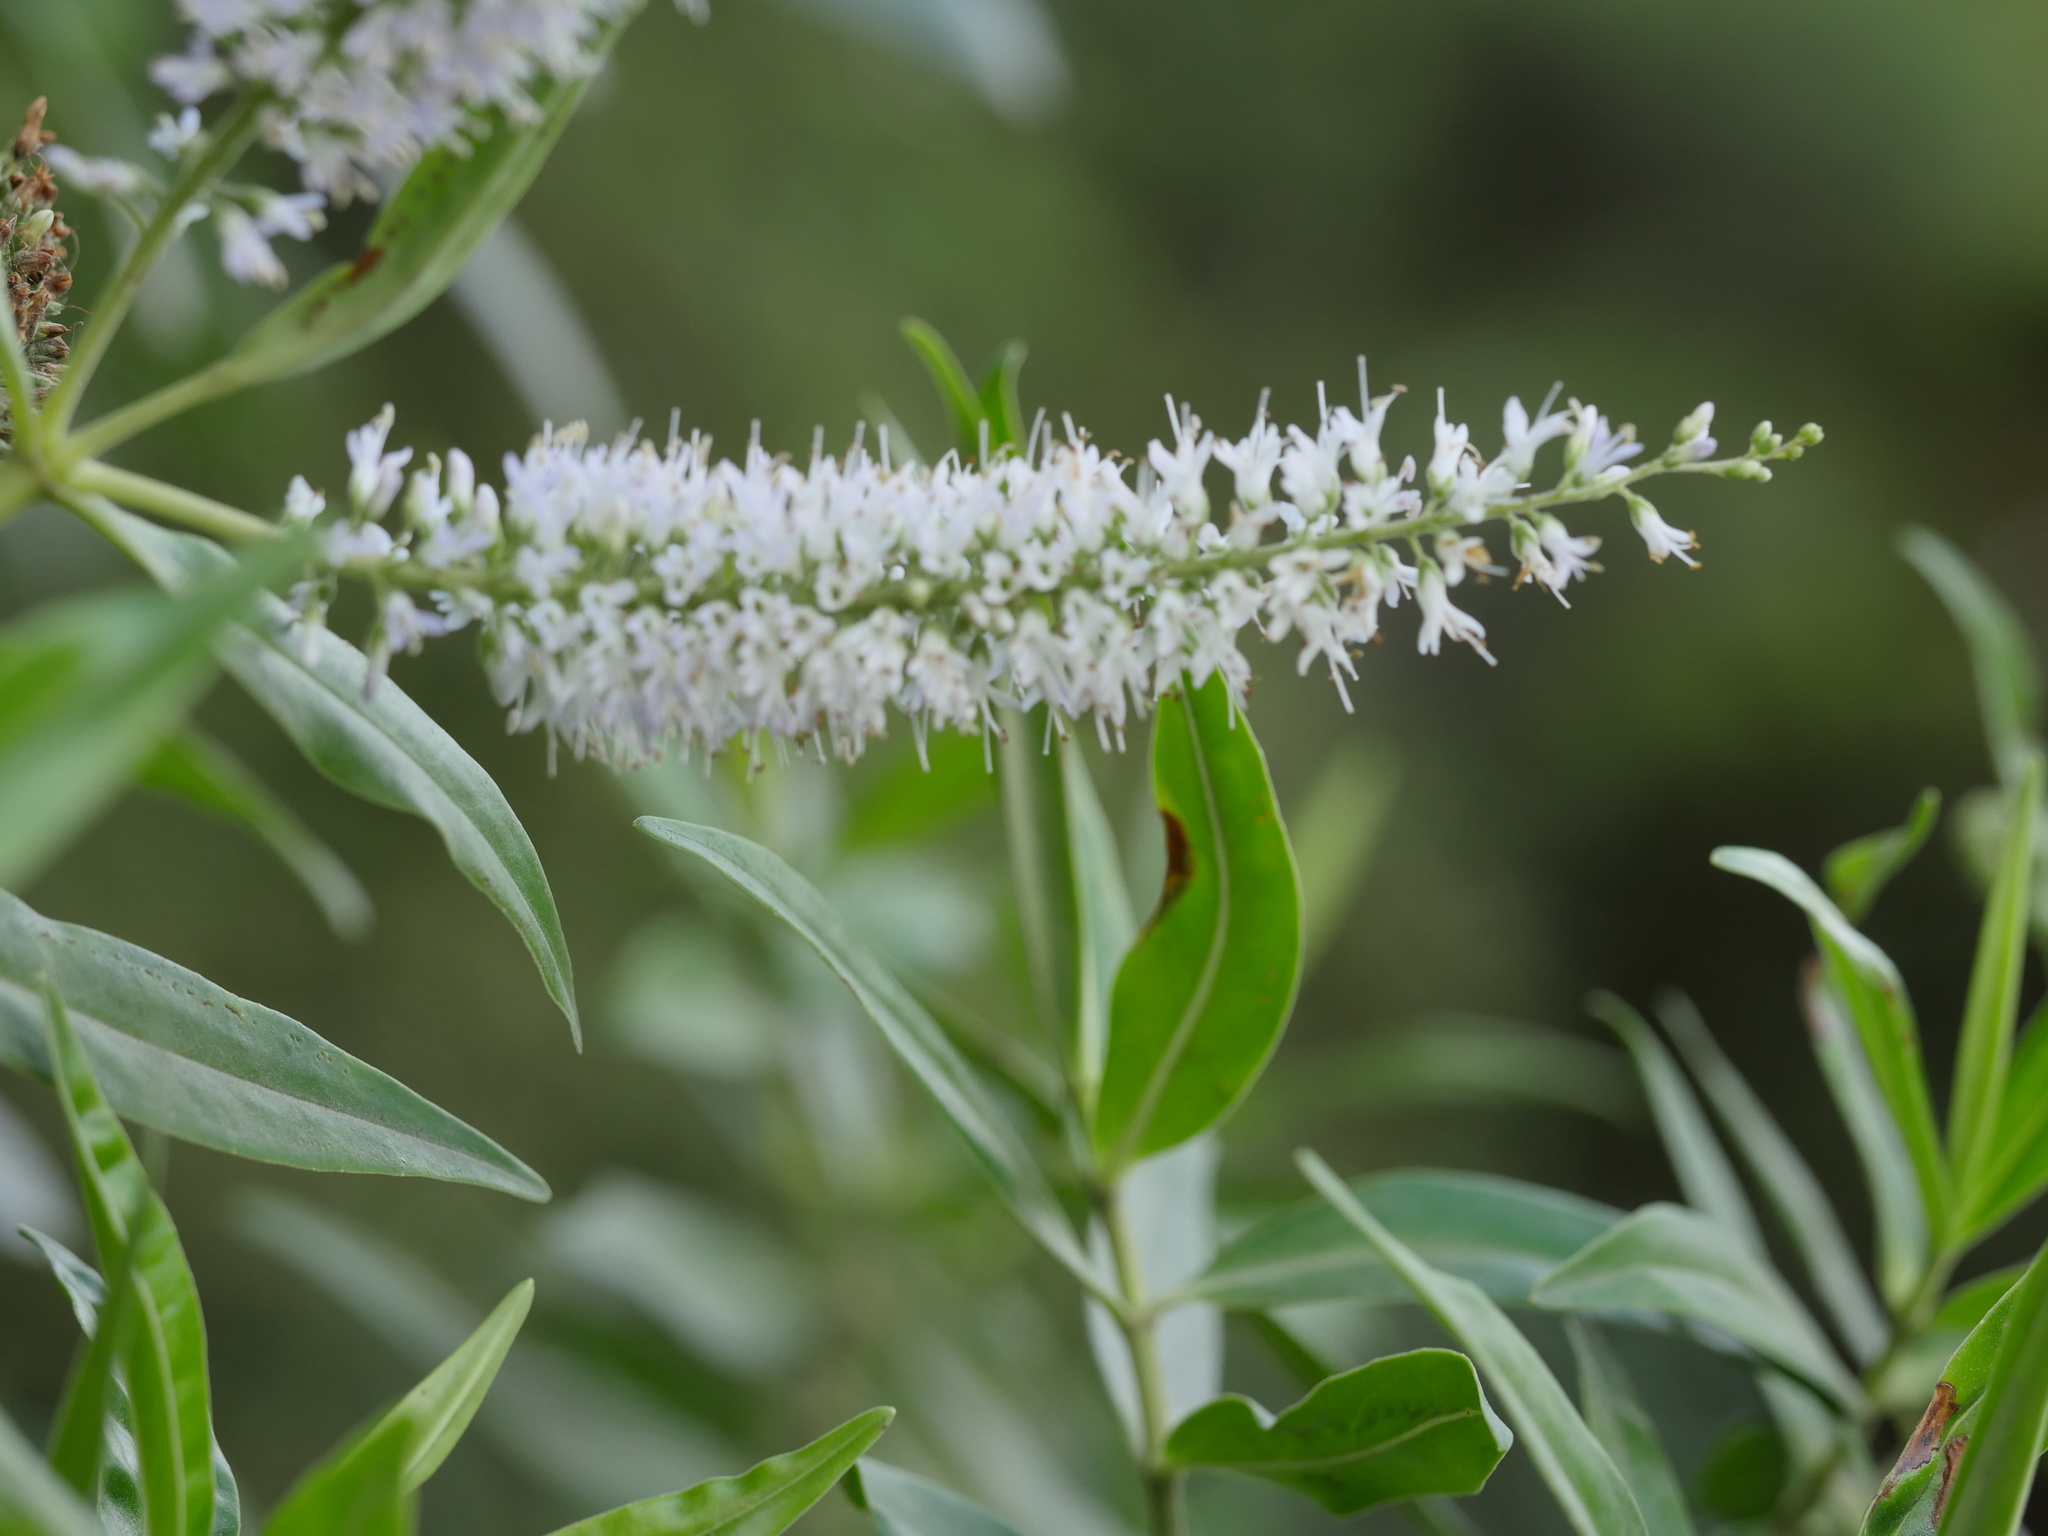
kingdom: Plantae
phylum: Tracheophyta
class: Magnoliopsida
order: Lamiales
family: Plantaginaceae
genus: Veronica
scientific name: Veronica stricta
